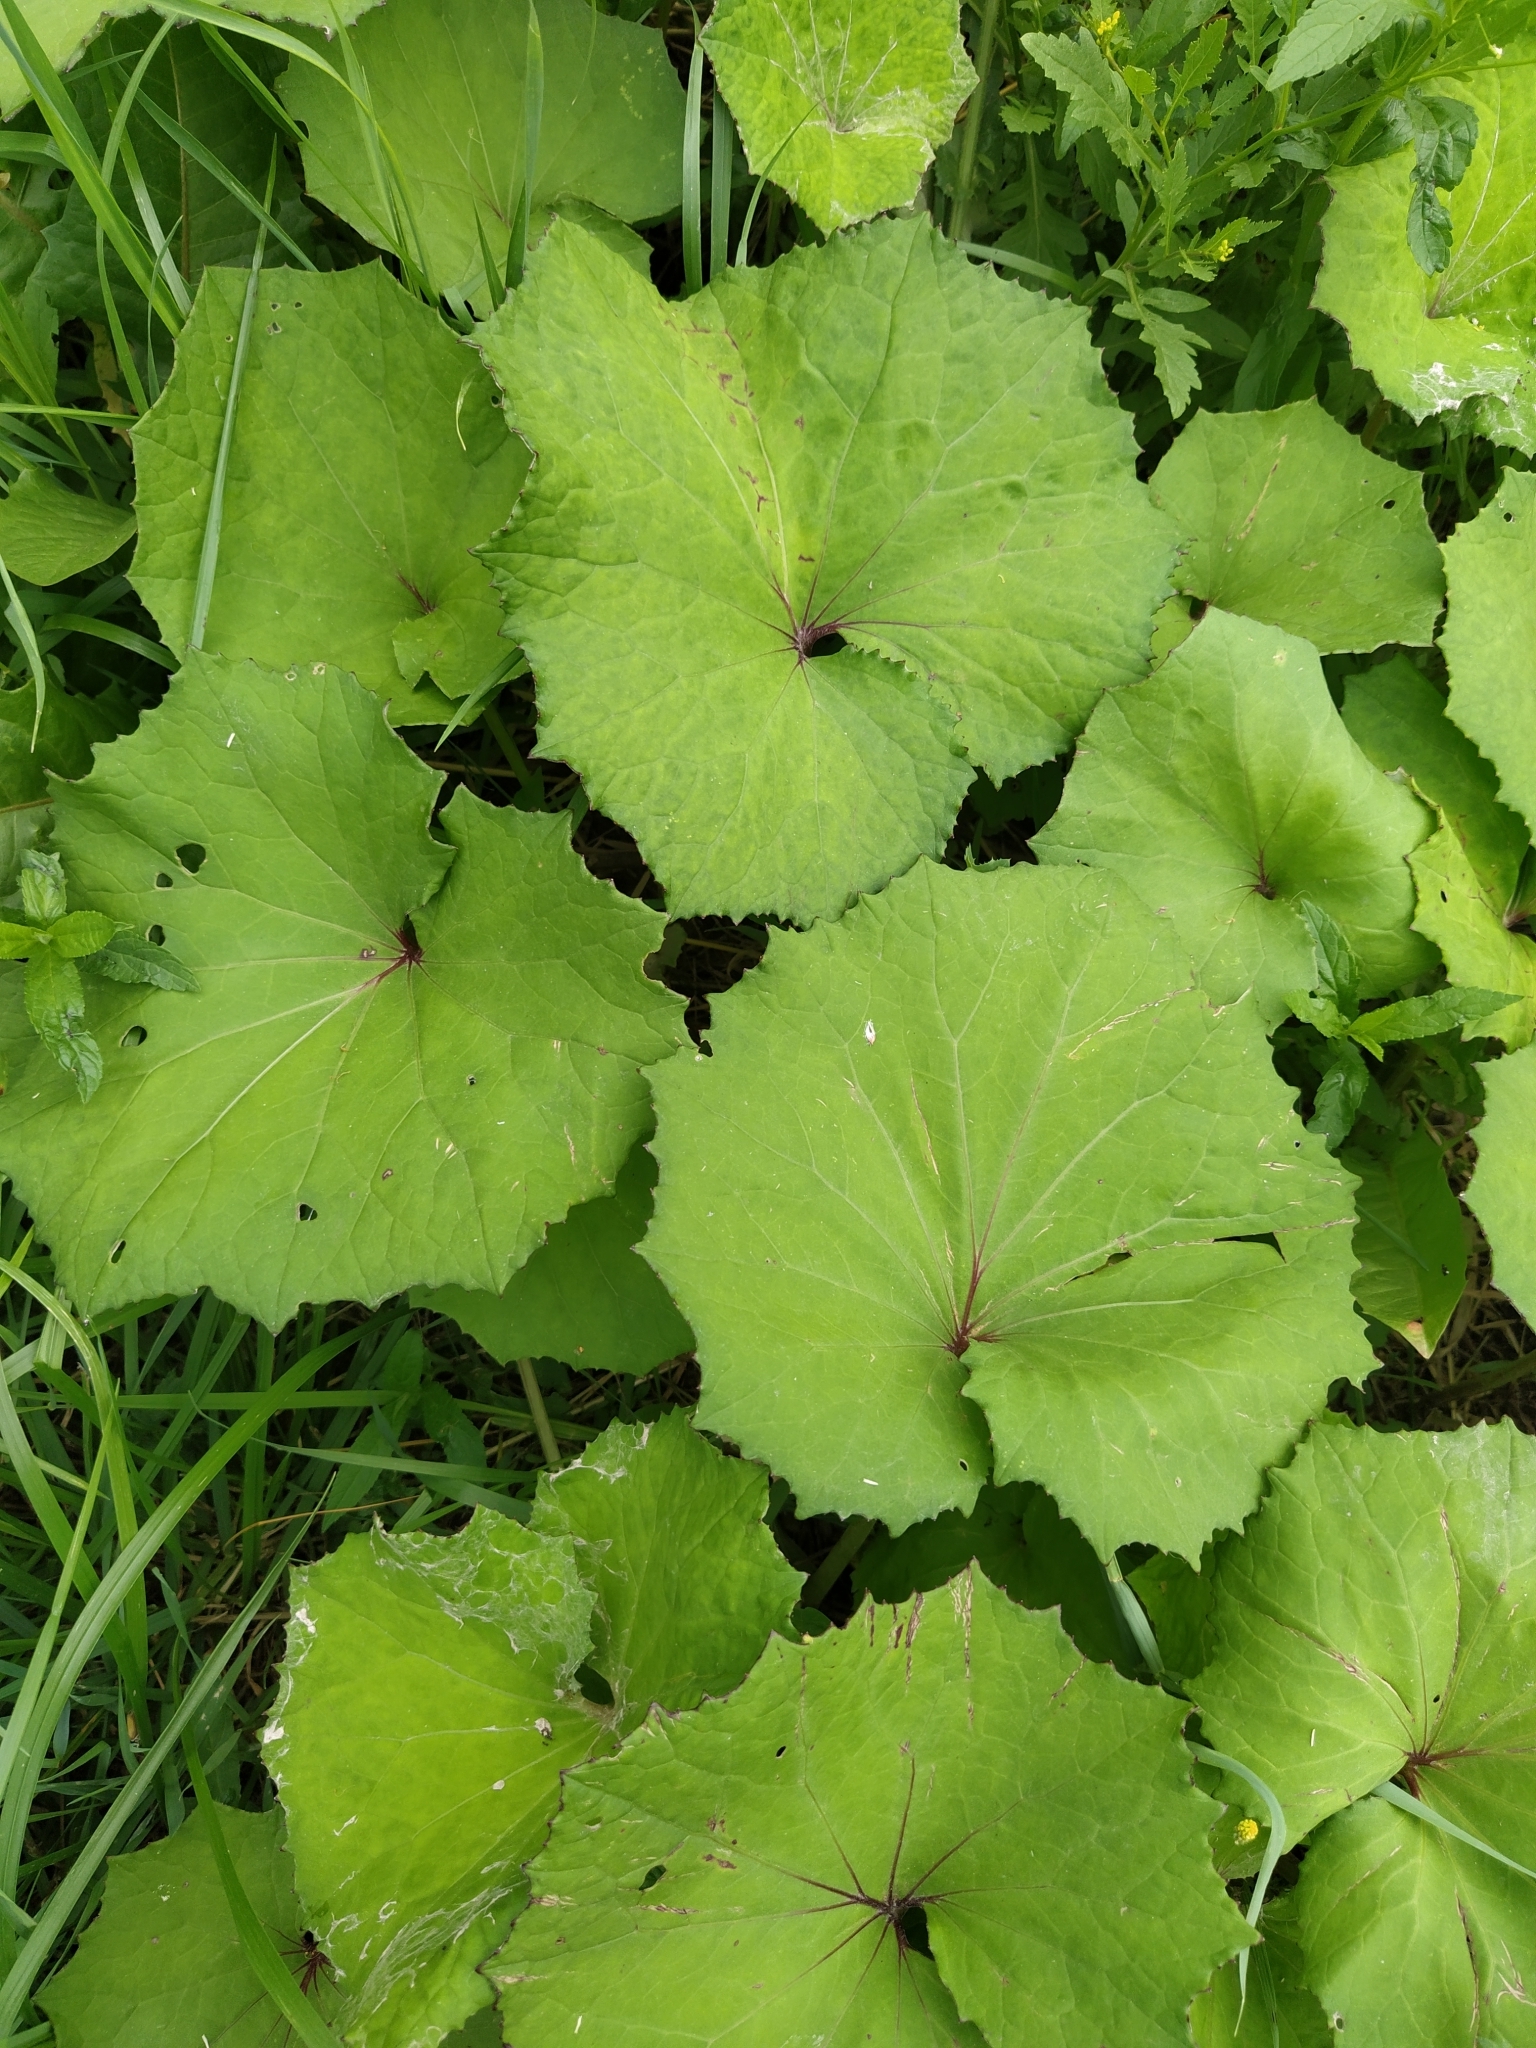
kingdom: Plantae
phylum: Tracheophyta
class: Magnoliopsida
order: Asterales
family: Asteraceae
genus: Tussilago
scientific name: Tussilago farfara
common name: Coltsfoot
